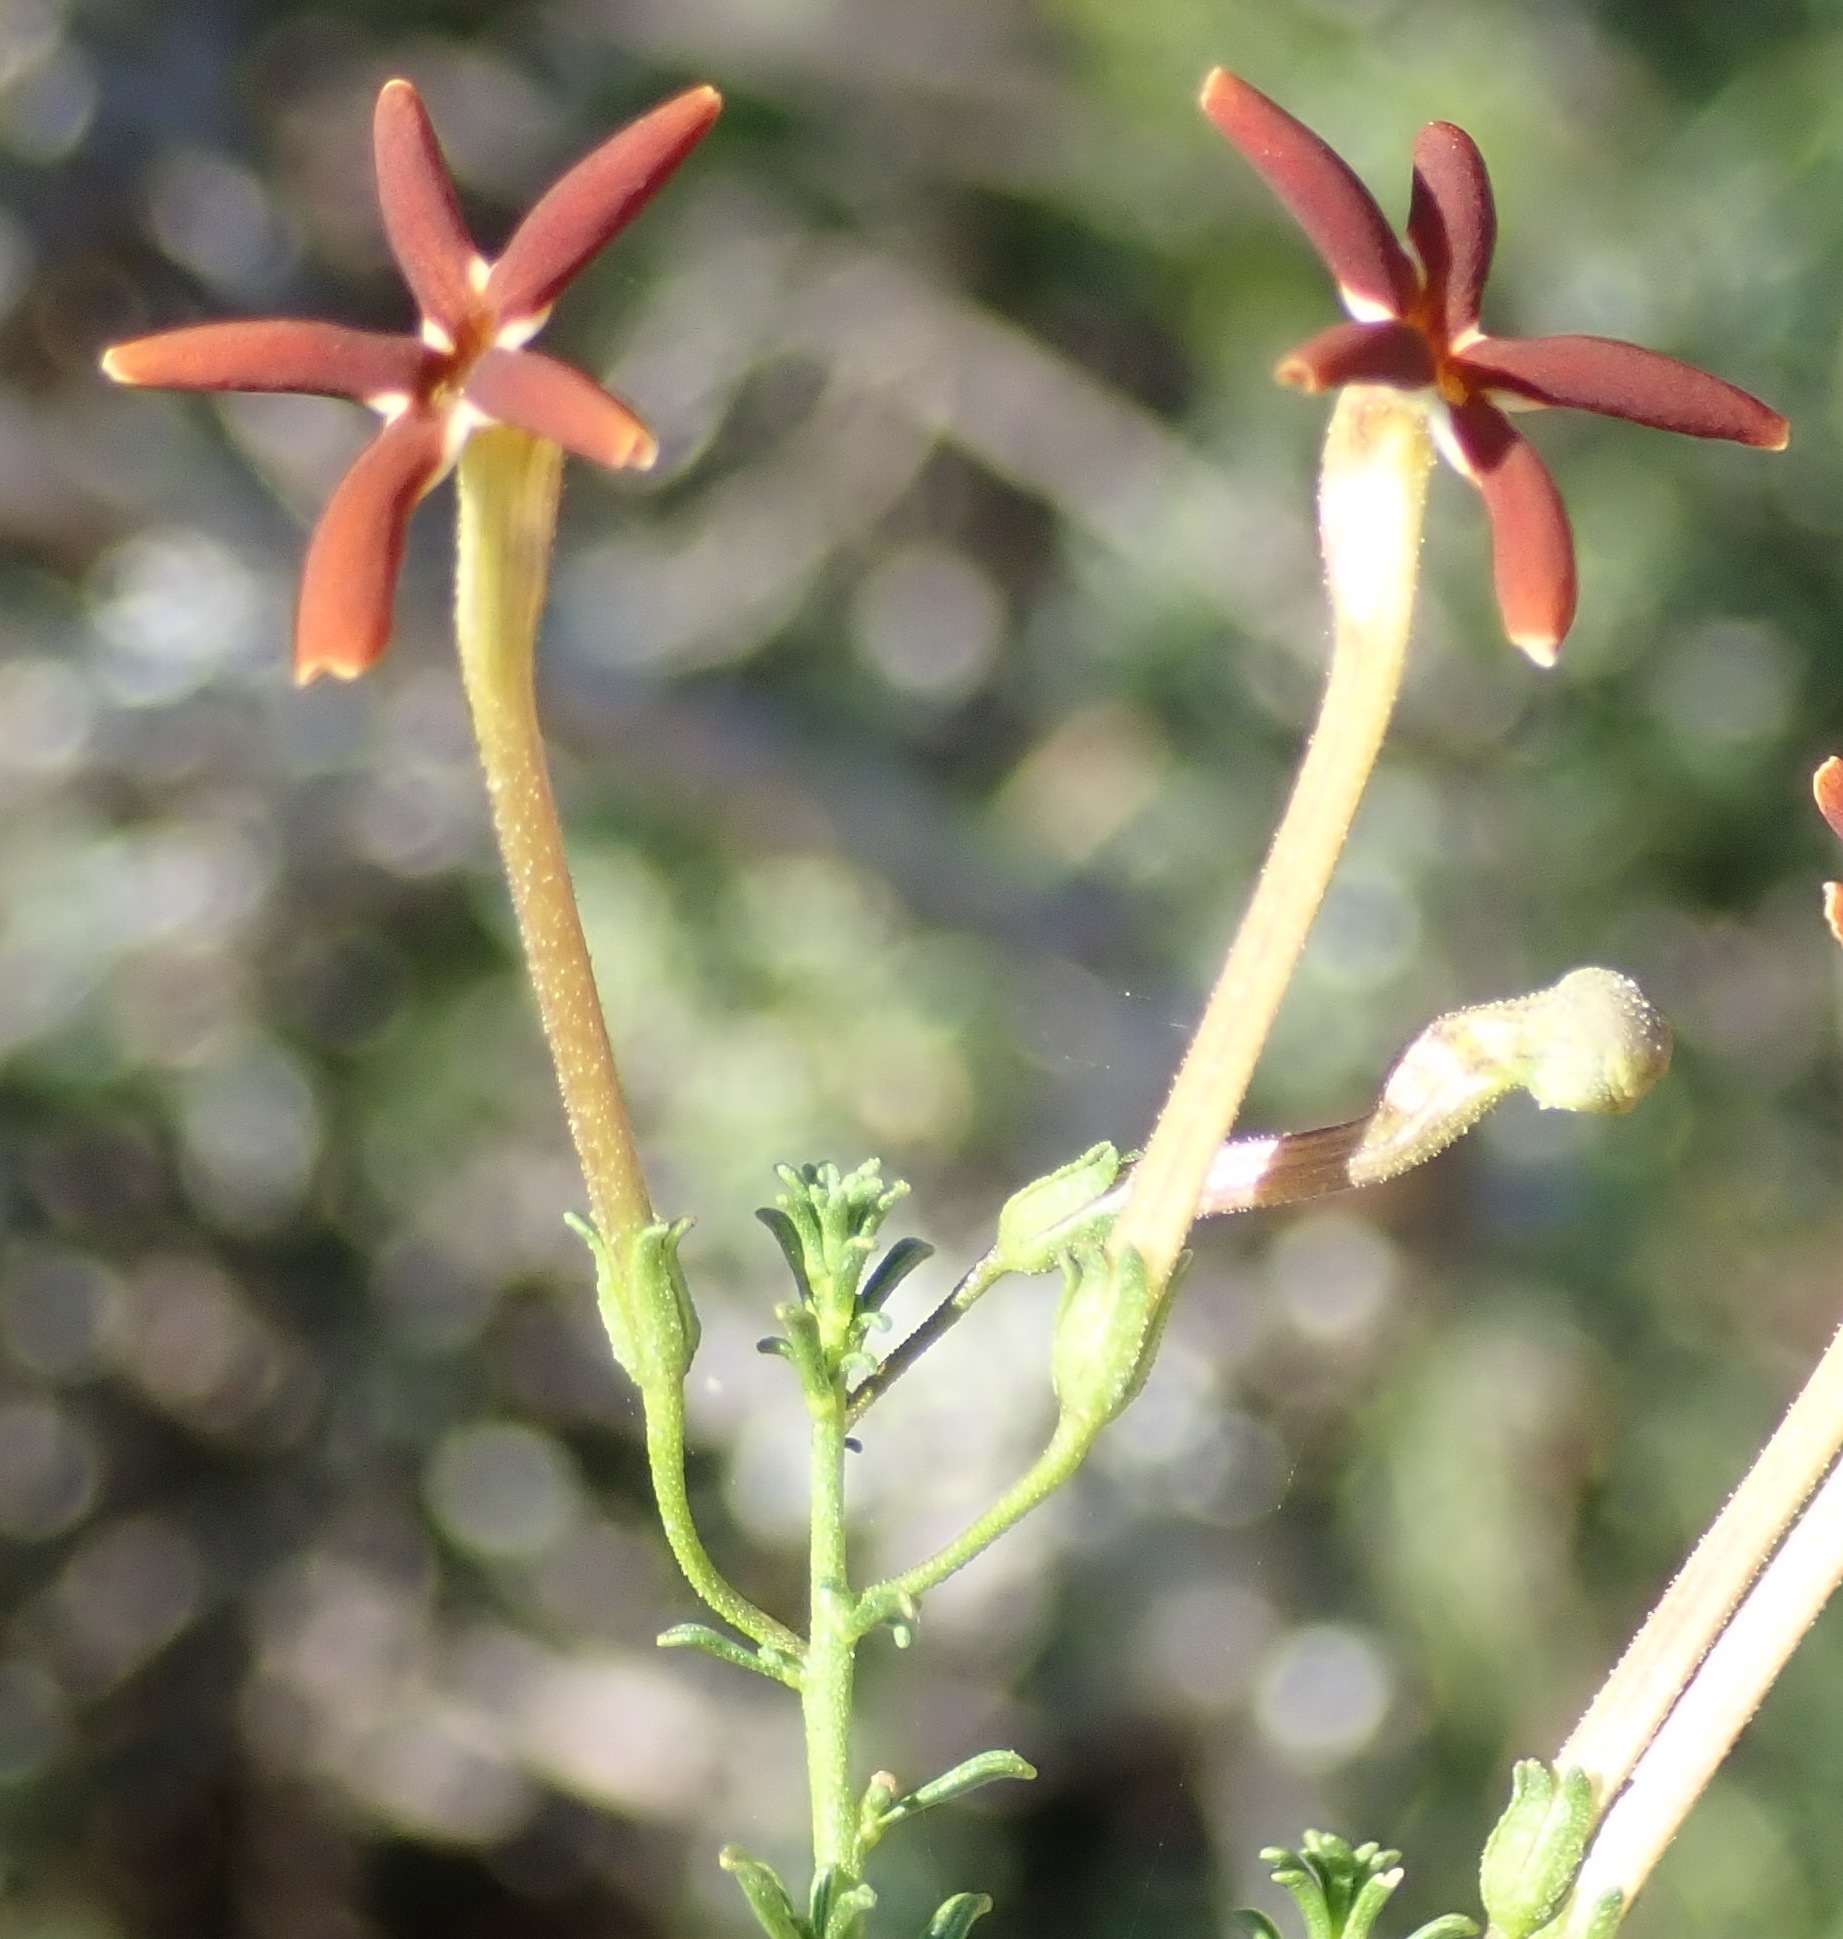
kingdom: Plantae
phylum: Tracheophyta
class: Magnoliopsida
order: Lamiales
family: Scrophulariaceae
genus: Jamesbrittenia
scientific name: Jamesbrittenia atropurpurea
